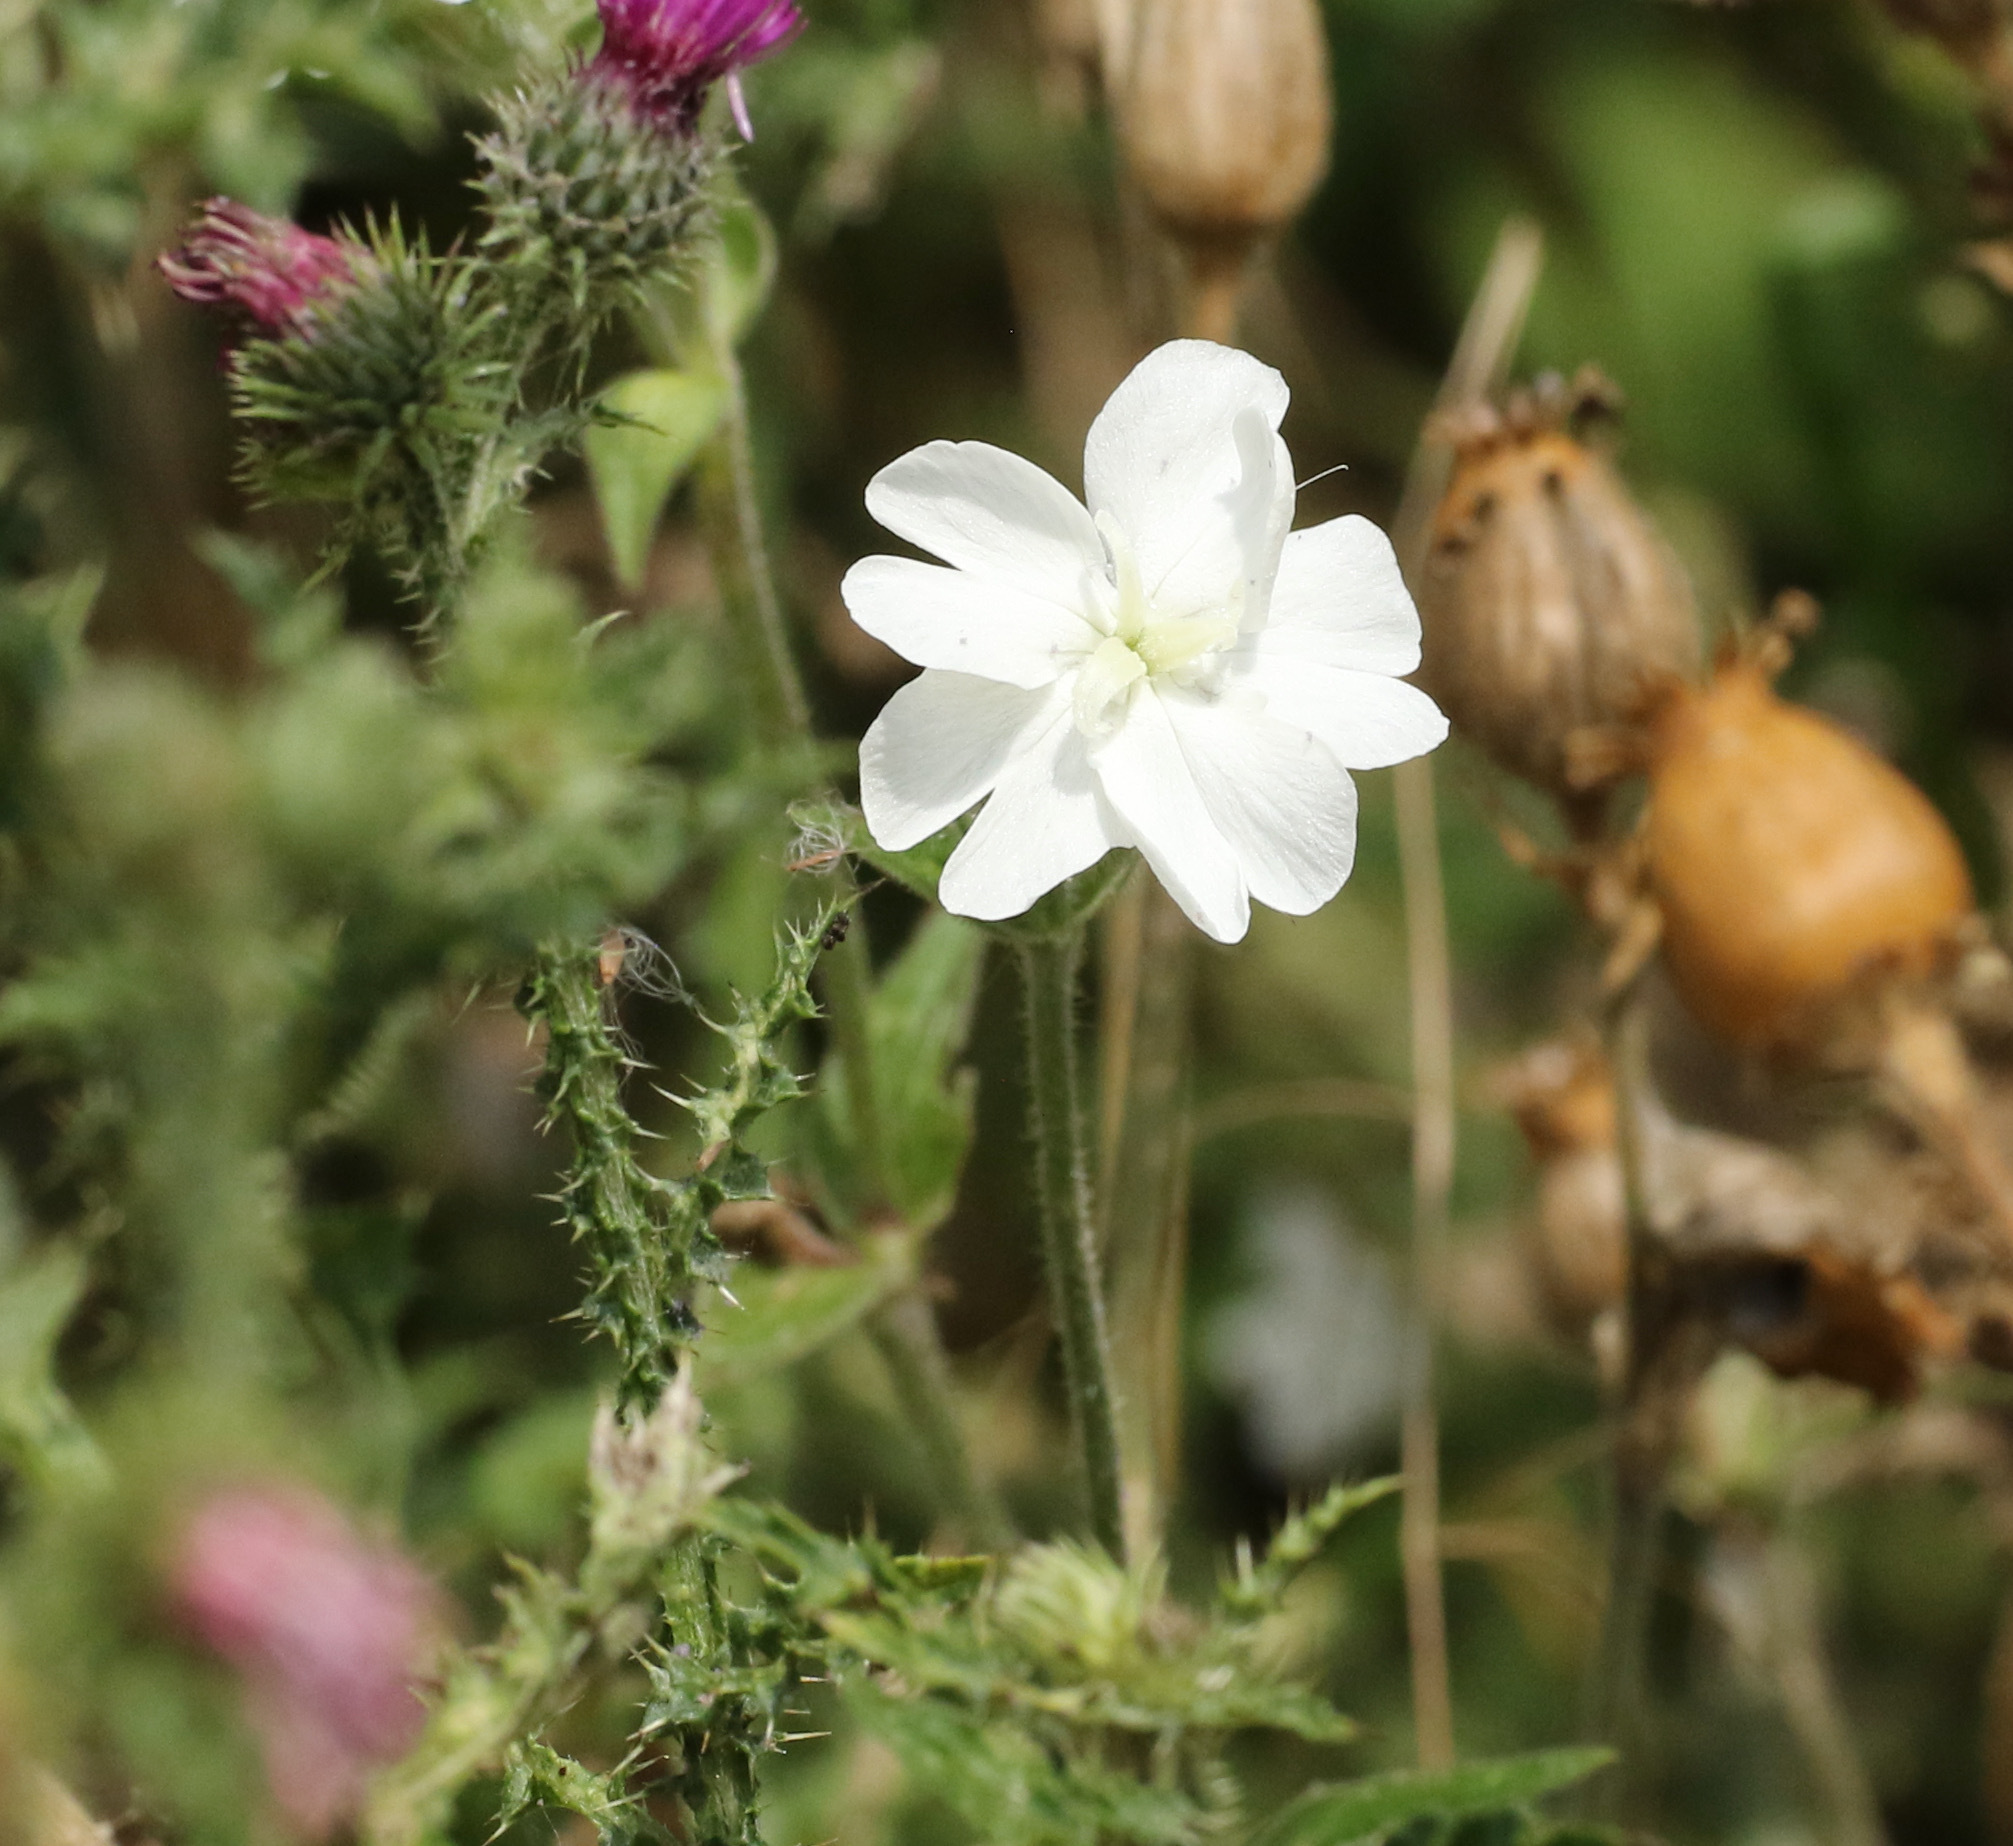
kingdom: Plantae
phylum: Tracheophyta
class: Magnoliopsida
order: Caryophyllales
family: Caryophyllaceae
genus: Silene
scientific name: Silene latifolia
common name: White campion
